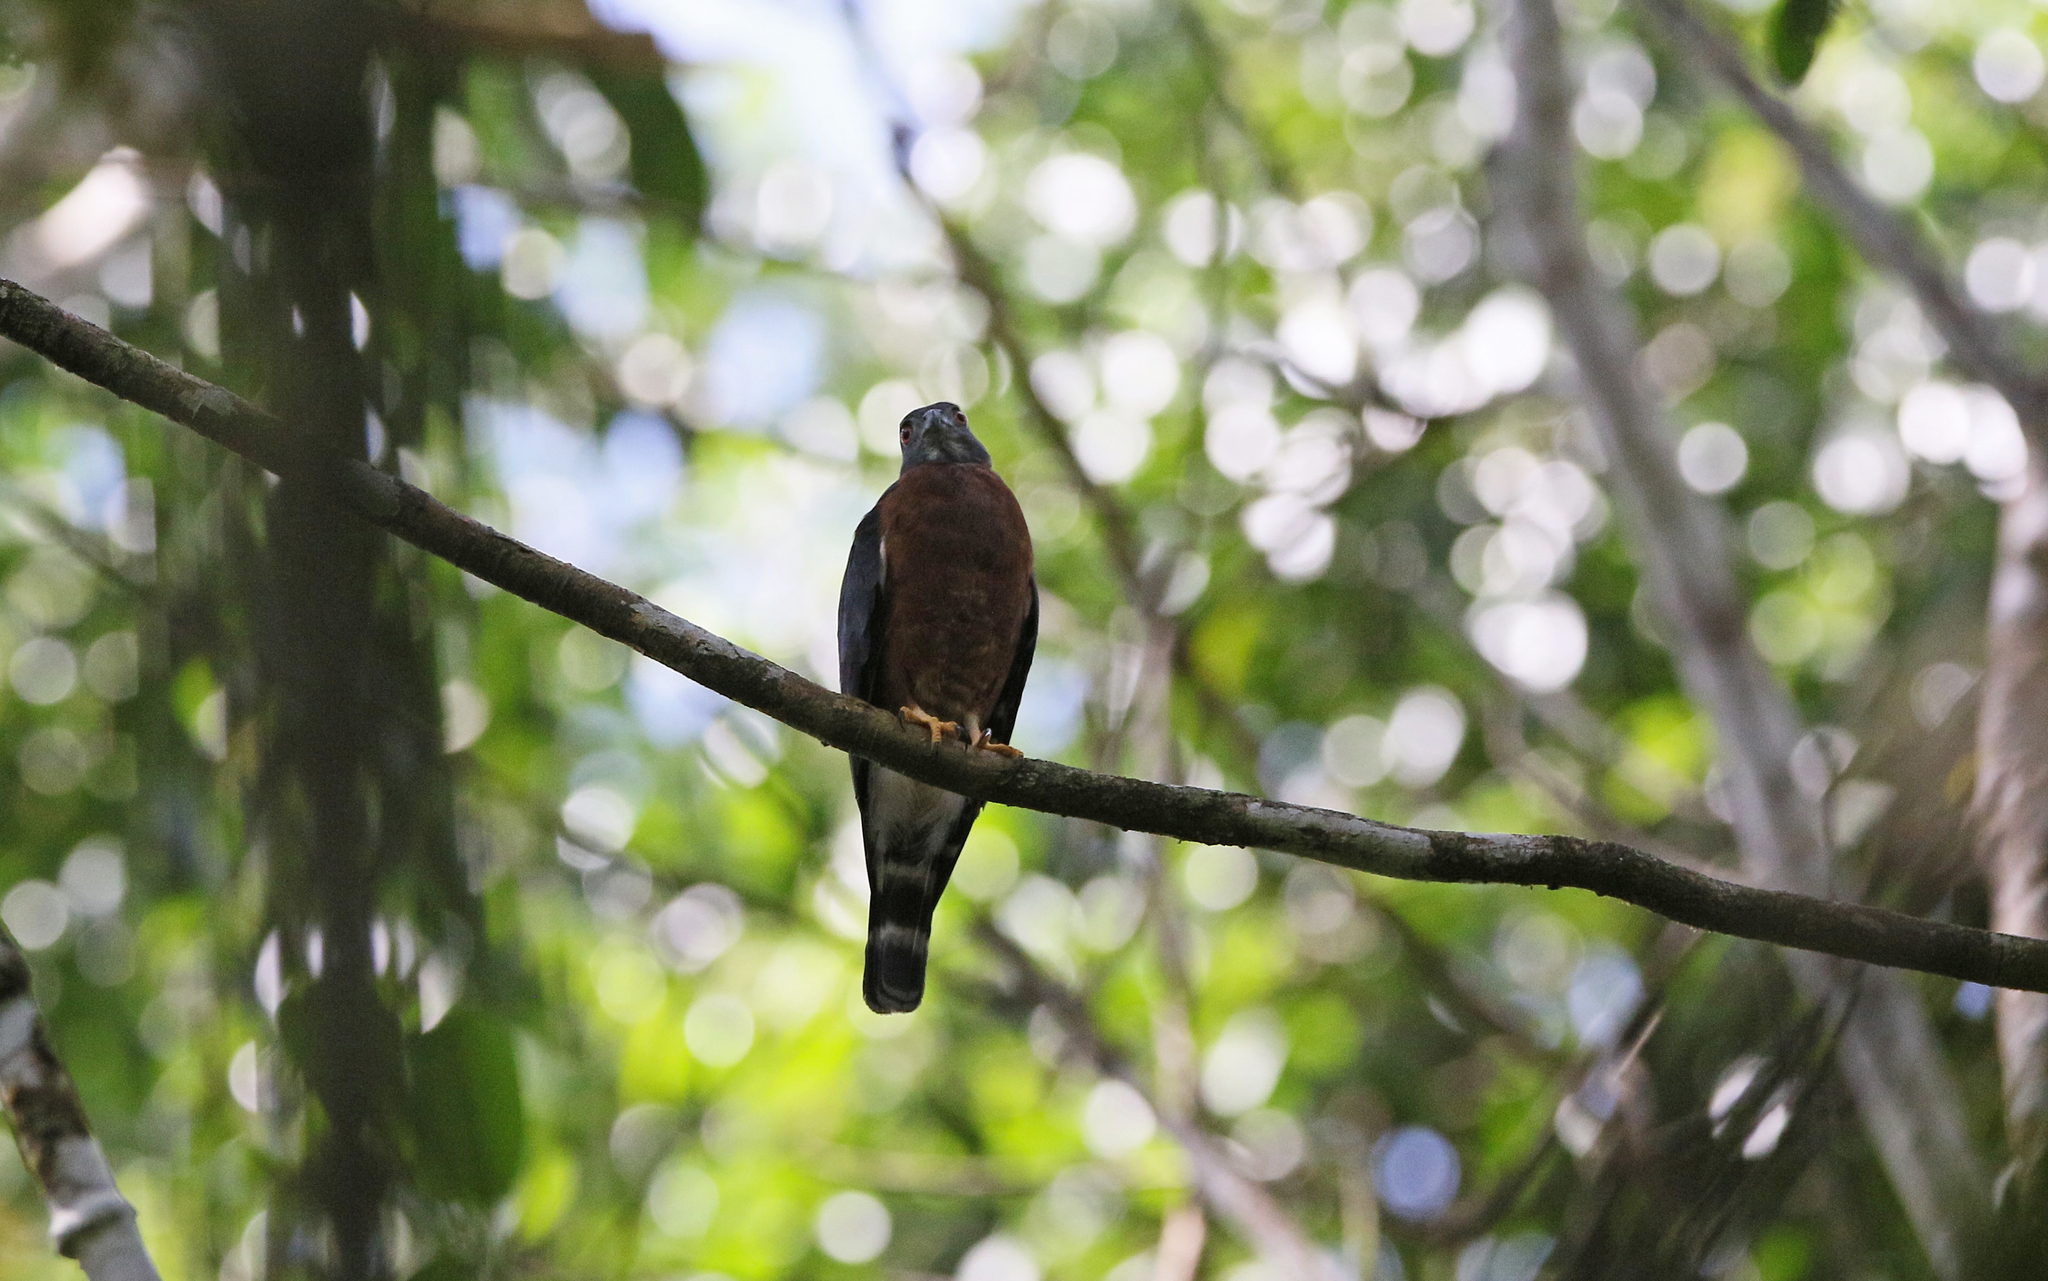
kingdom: Animalia
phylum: Chordata
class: Aves
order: Accipitriformes
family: Accipitridae
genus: Harpagus
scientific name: Harpagus bidentatus
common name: Double-toothed kite
